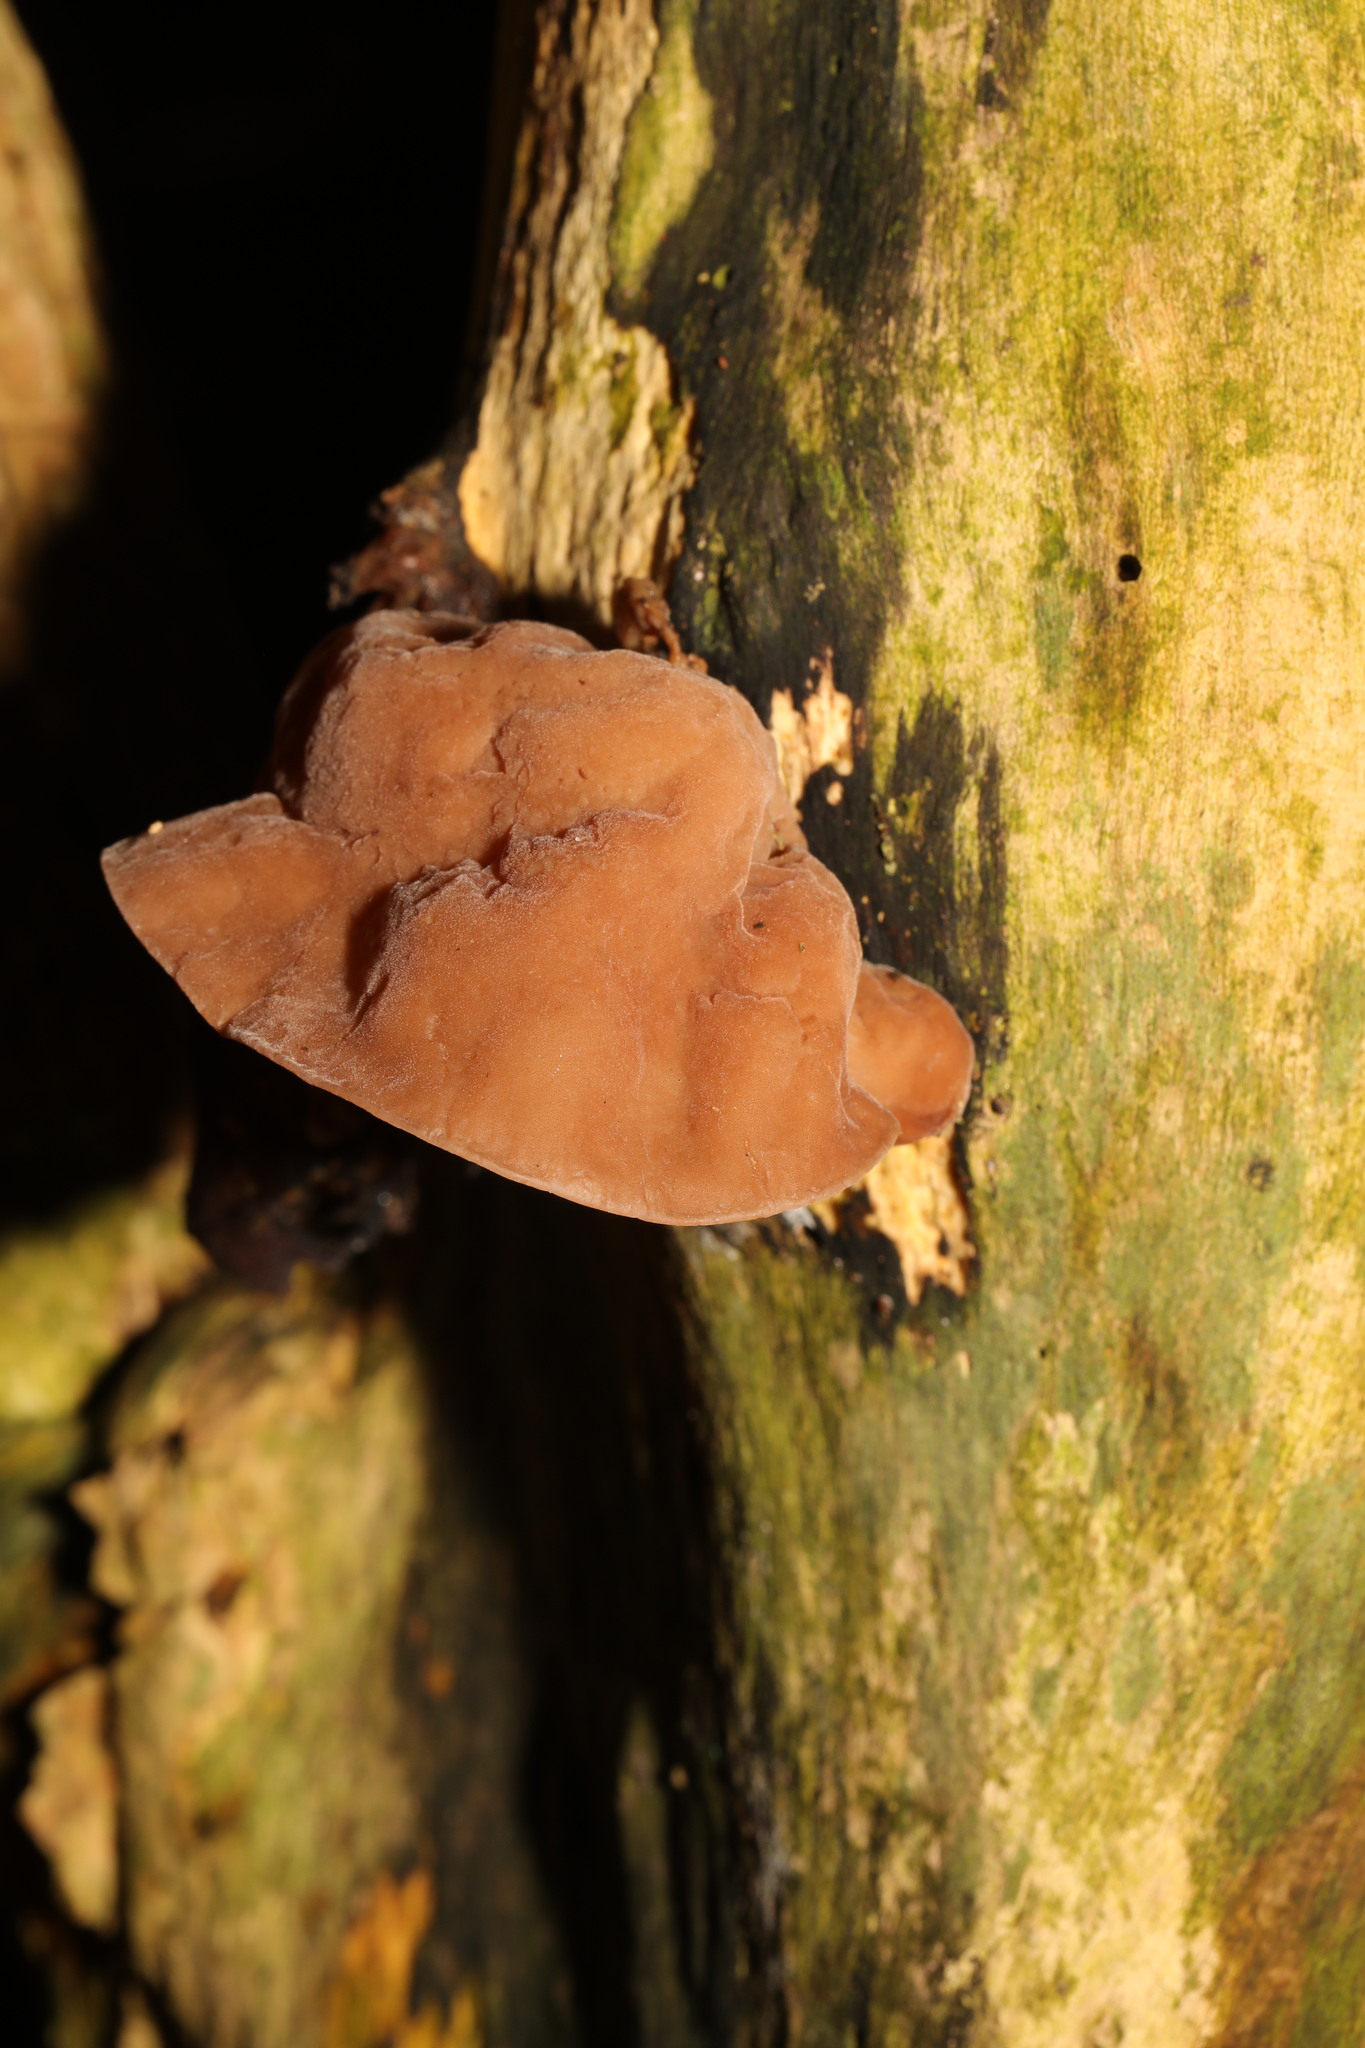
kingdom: Fungi
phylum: Basidiomycota
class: Agaricomycetes
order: Auriculariales
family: Auriculariaceae
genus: Auricularia
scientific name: Auricularia auricula-judae
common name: Jelly ear
